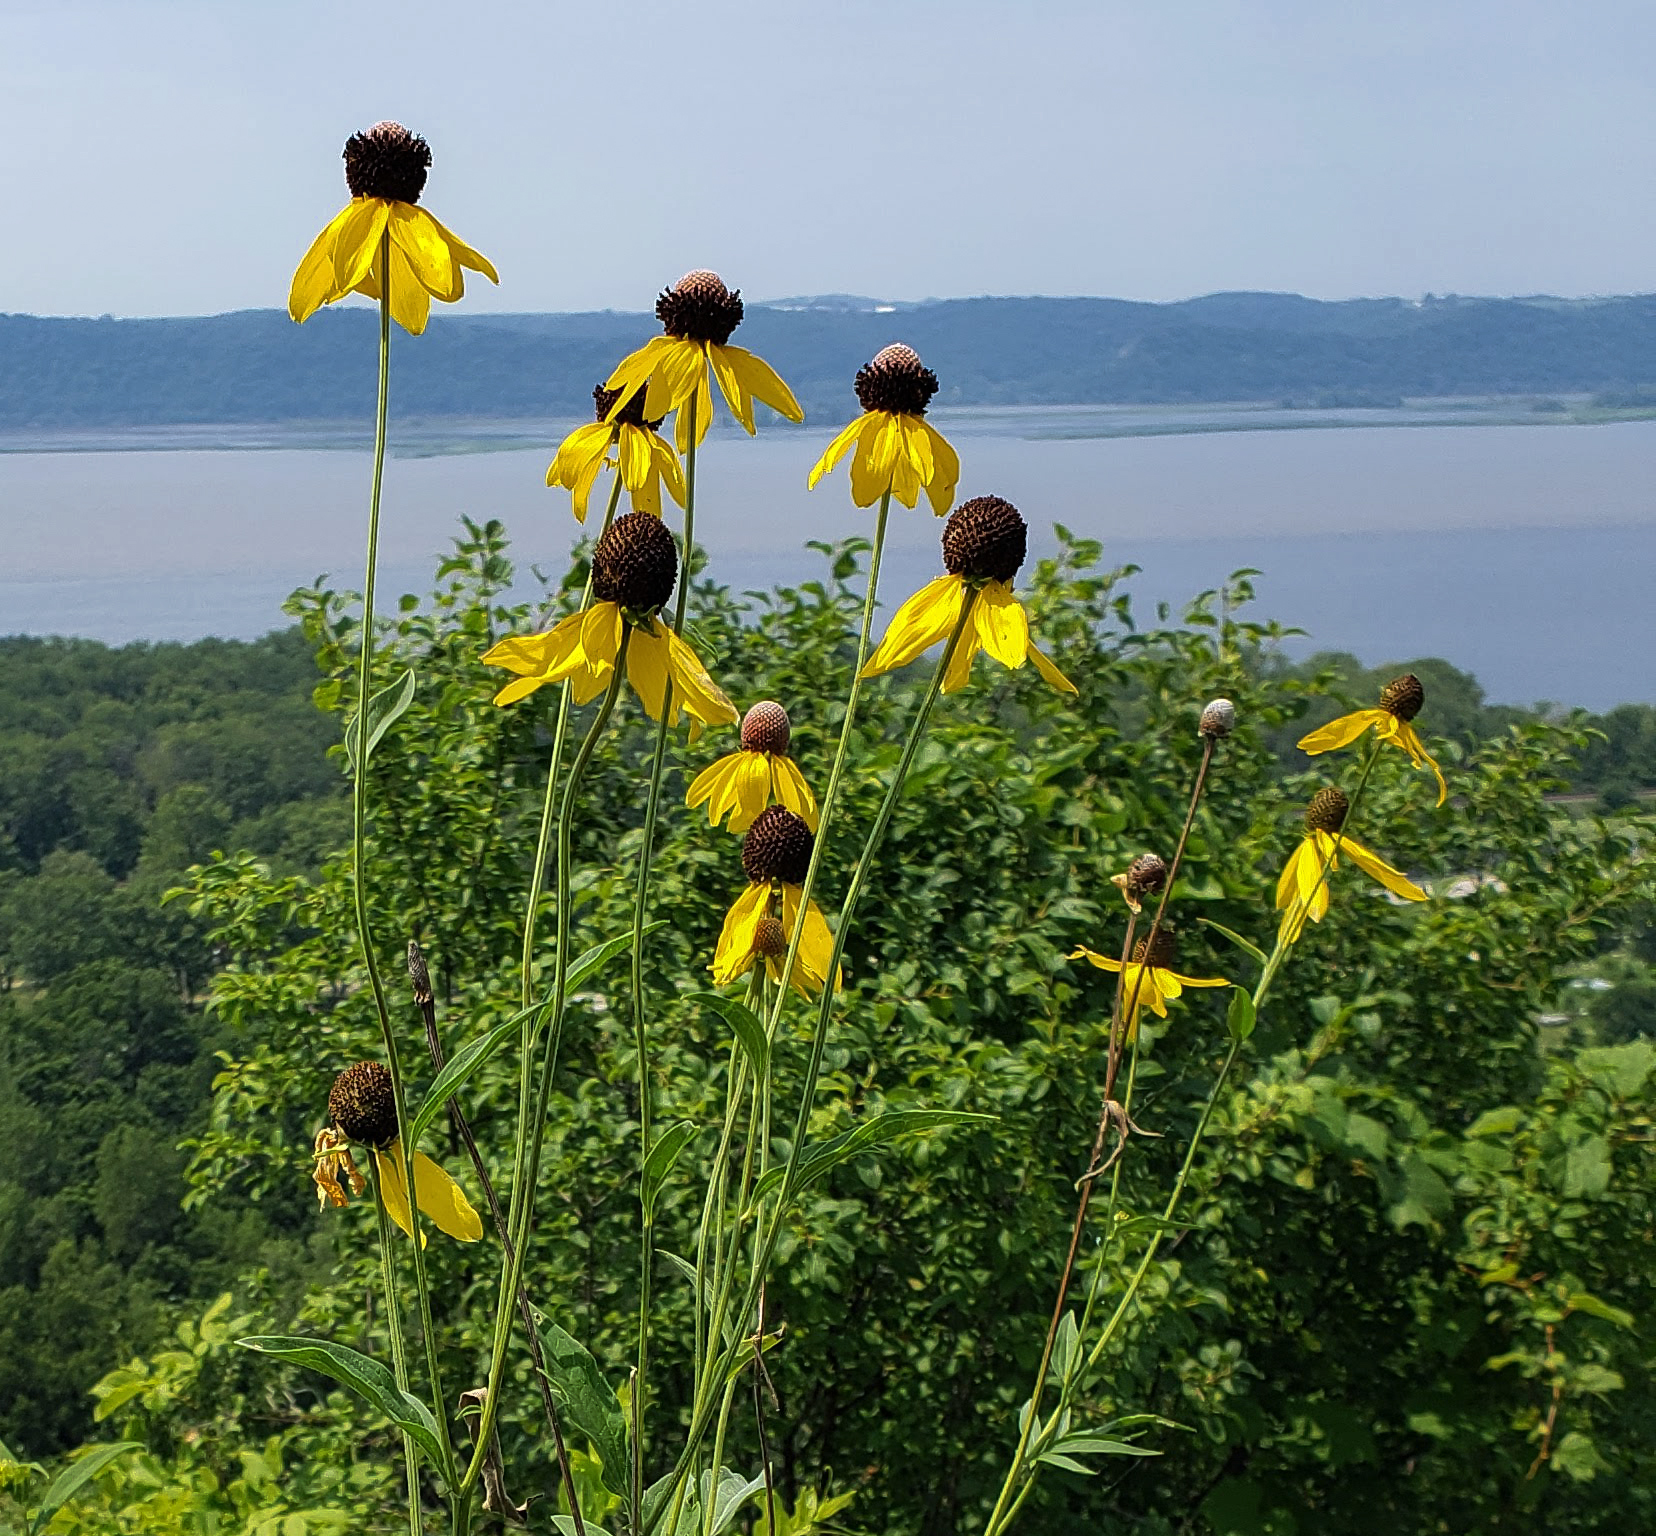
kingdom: Plantae
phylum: Tracheophyta
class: Magnoliopsida
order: Asterales
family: Asteraceae
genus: Ratibida
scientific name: Ratibida pinnata
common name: Drooping prairie-coneflower
